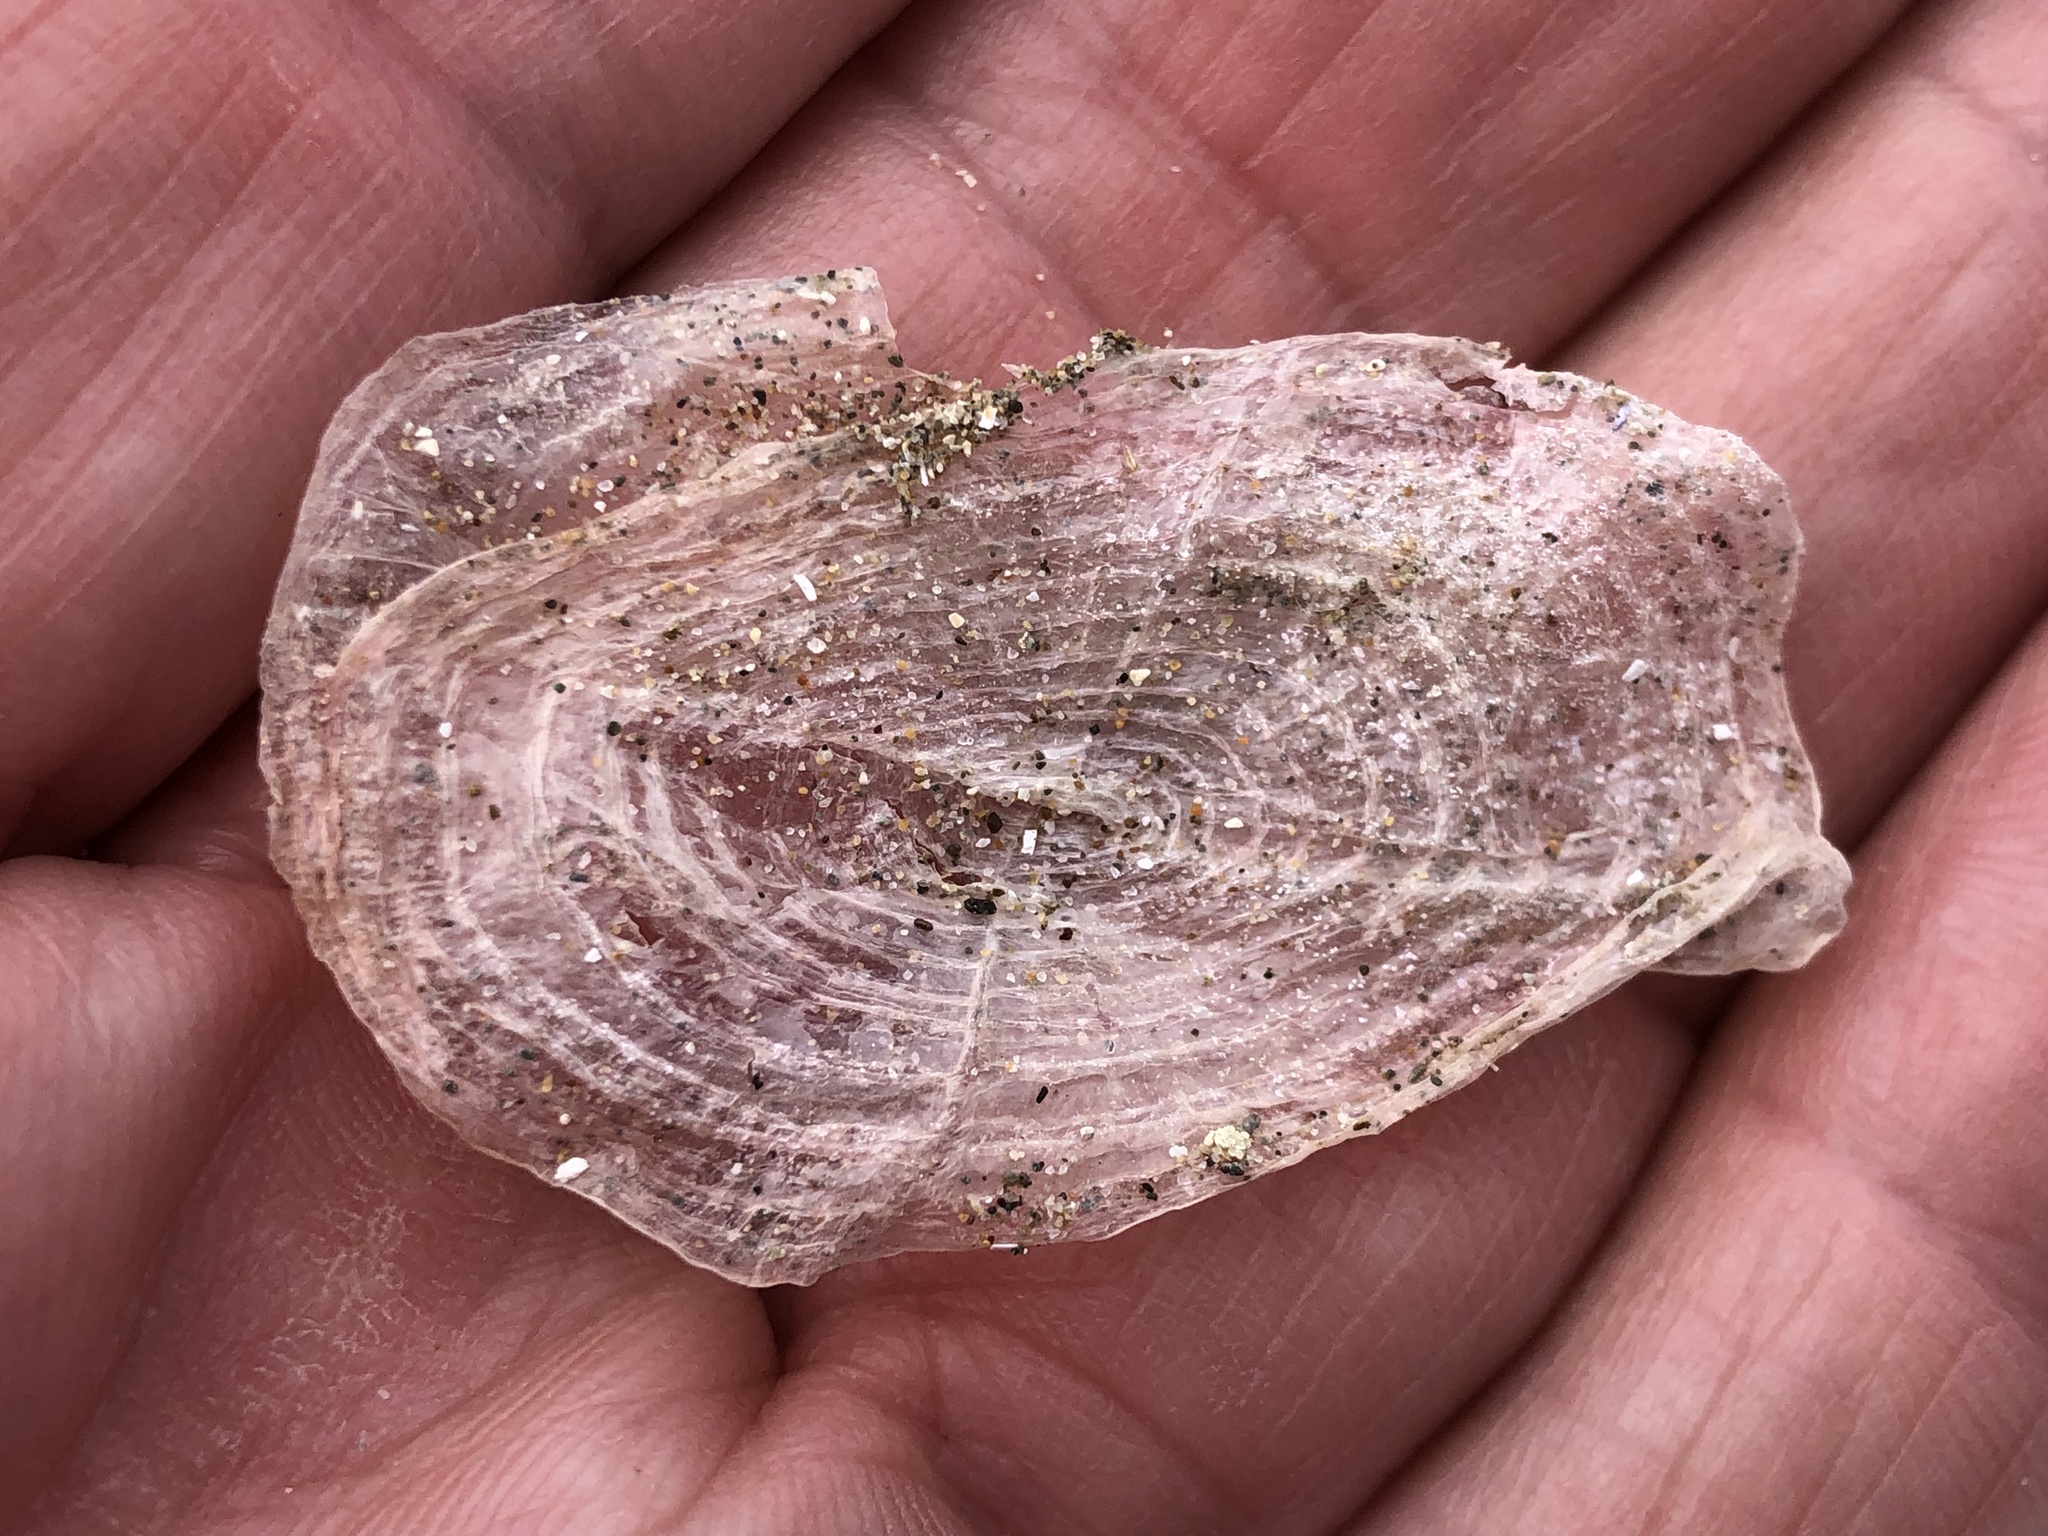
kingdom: Animalia
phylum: Cnidaria
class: Hydrozoa
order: Anthoathecata
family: Porpitidae
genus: Velella
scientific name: Velella velella
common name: By-the-wind-sailor
